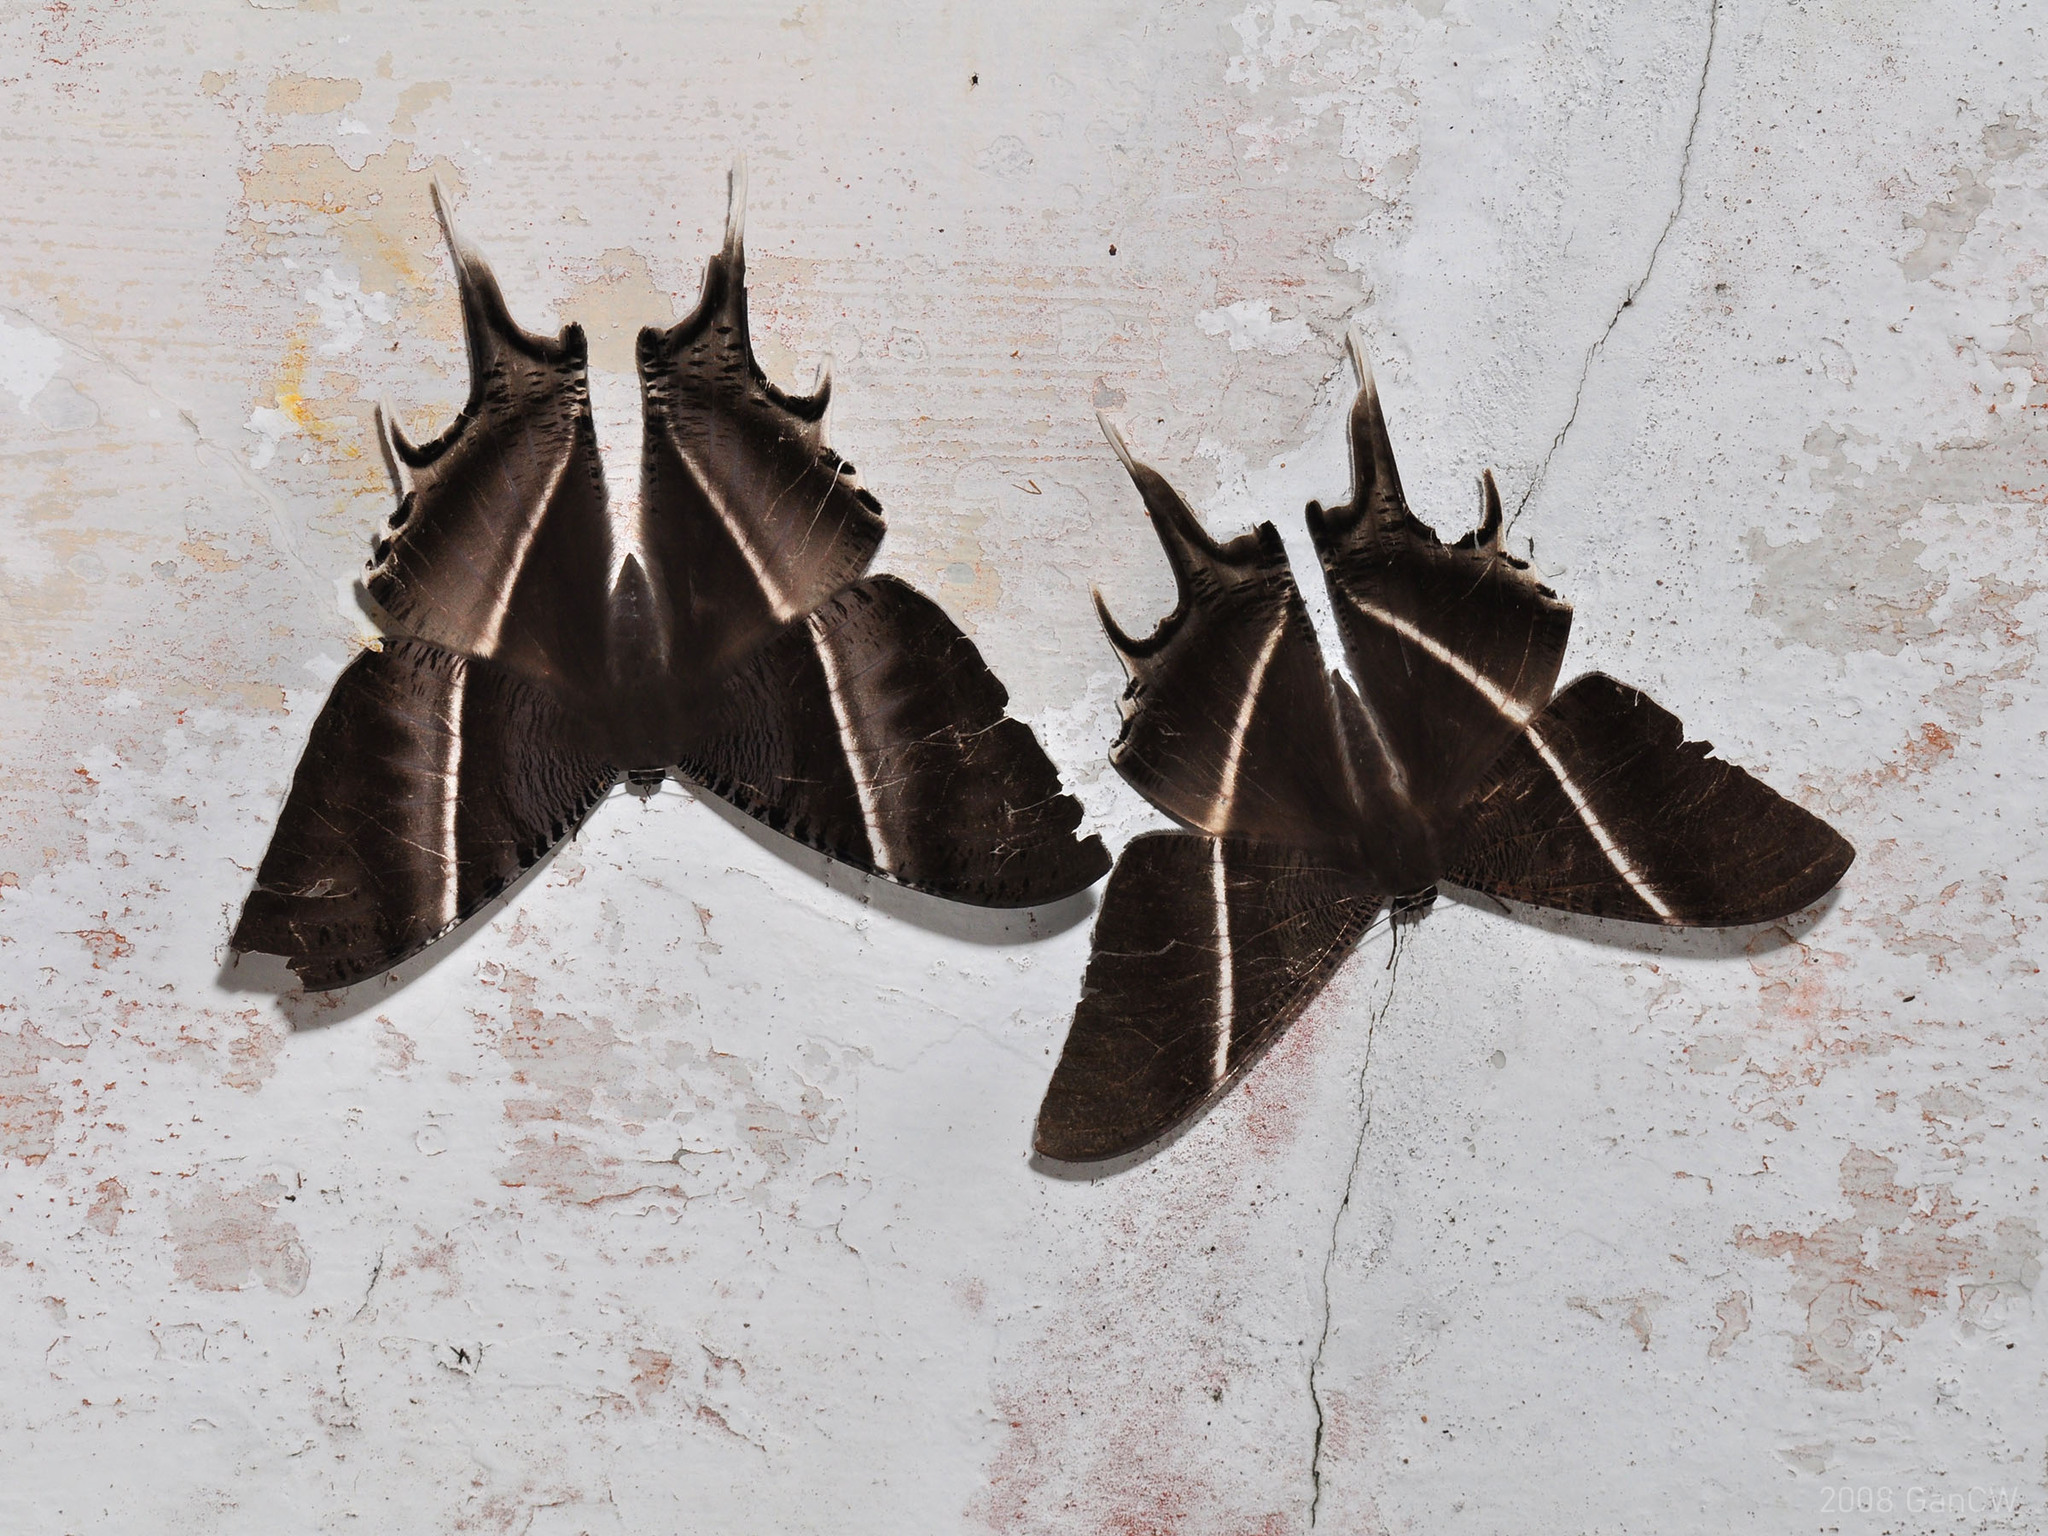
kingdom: Animalia
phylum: Arthropoda
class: Insecta
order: Lepidoptera
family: Uraniidae
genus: Lyssa
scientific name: Lyssa zampa
